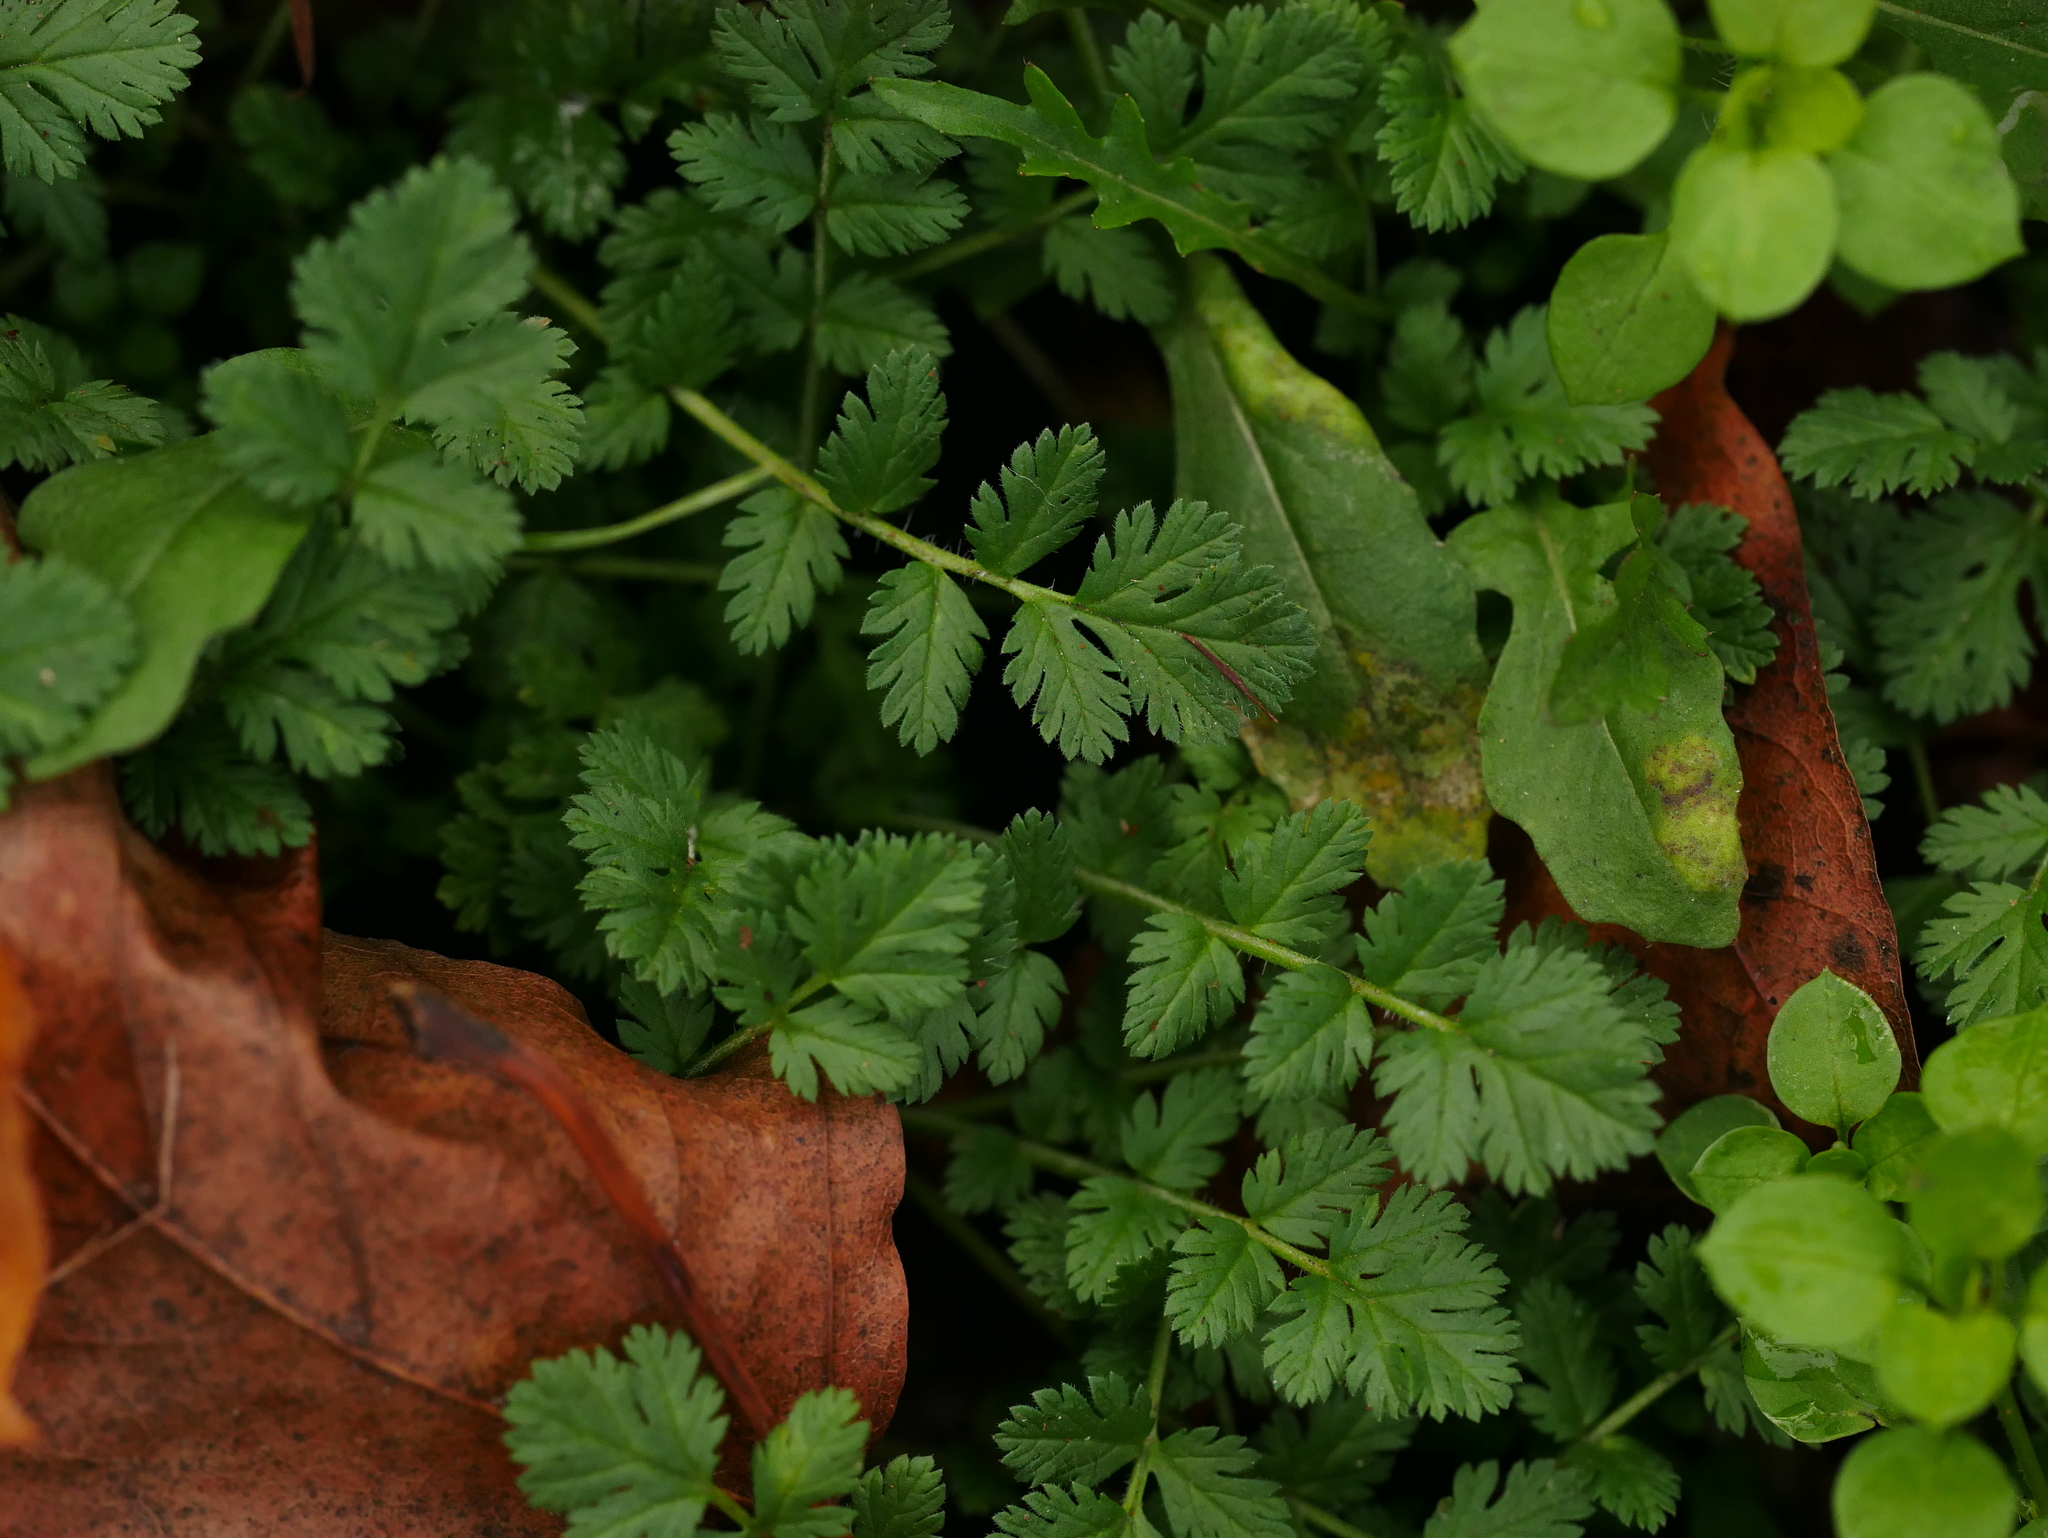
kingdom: Plantae
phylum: Tracheophyta
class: Magnoliopsida
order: Geraniales
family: Geraniaceae
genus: Erodium
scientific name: Erodium cicutarium
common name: Common stork's-bill
